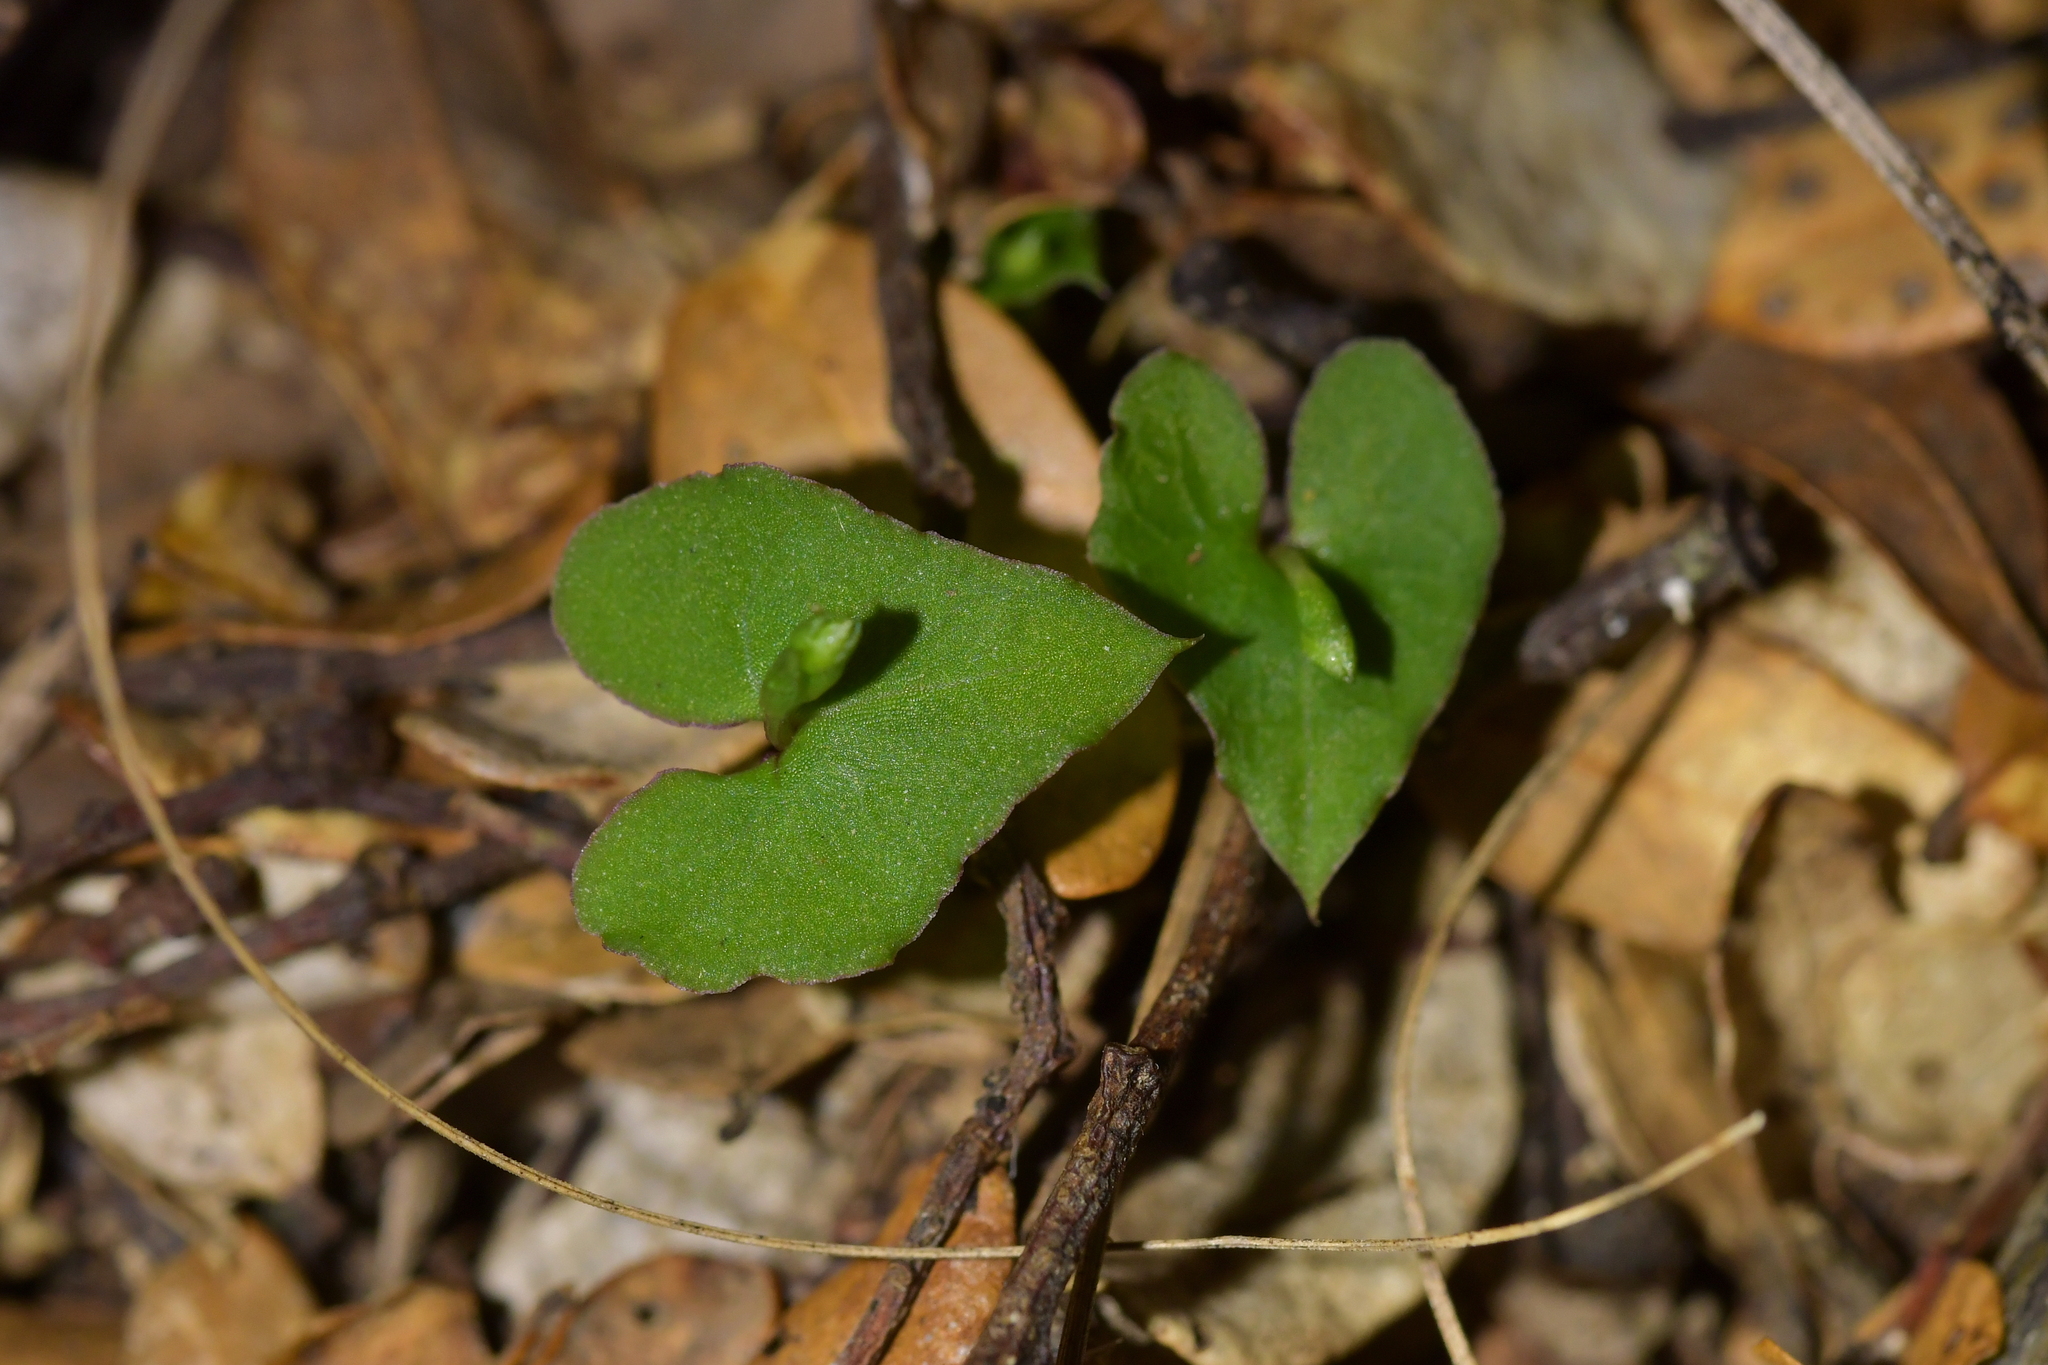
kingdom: Plantae
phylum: Tracheophyta
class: Liliopsida
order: Asparagales
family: Orchidaceae
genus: Acianthus
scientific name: Acianthus sinclairii
